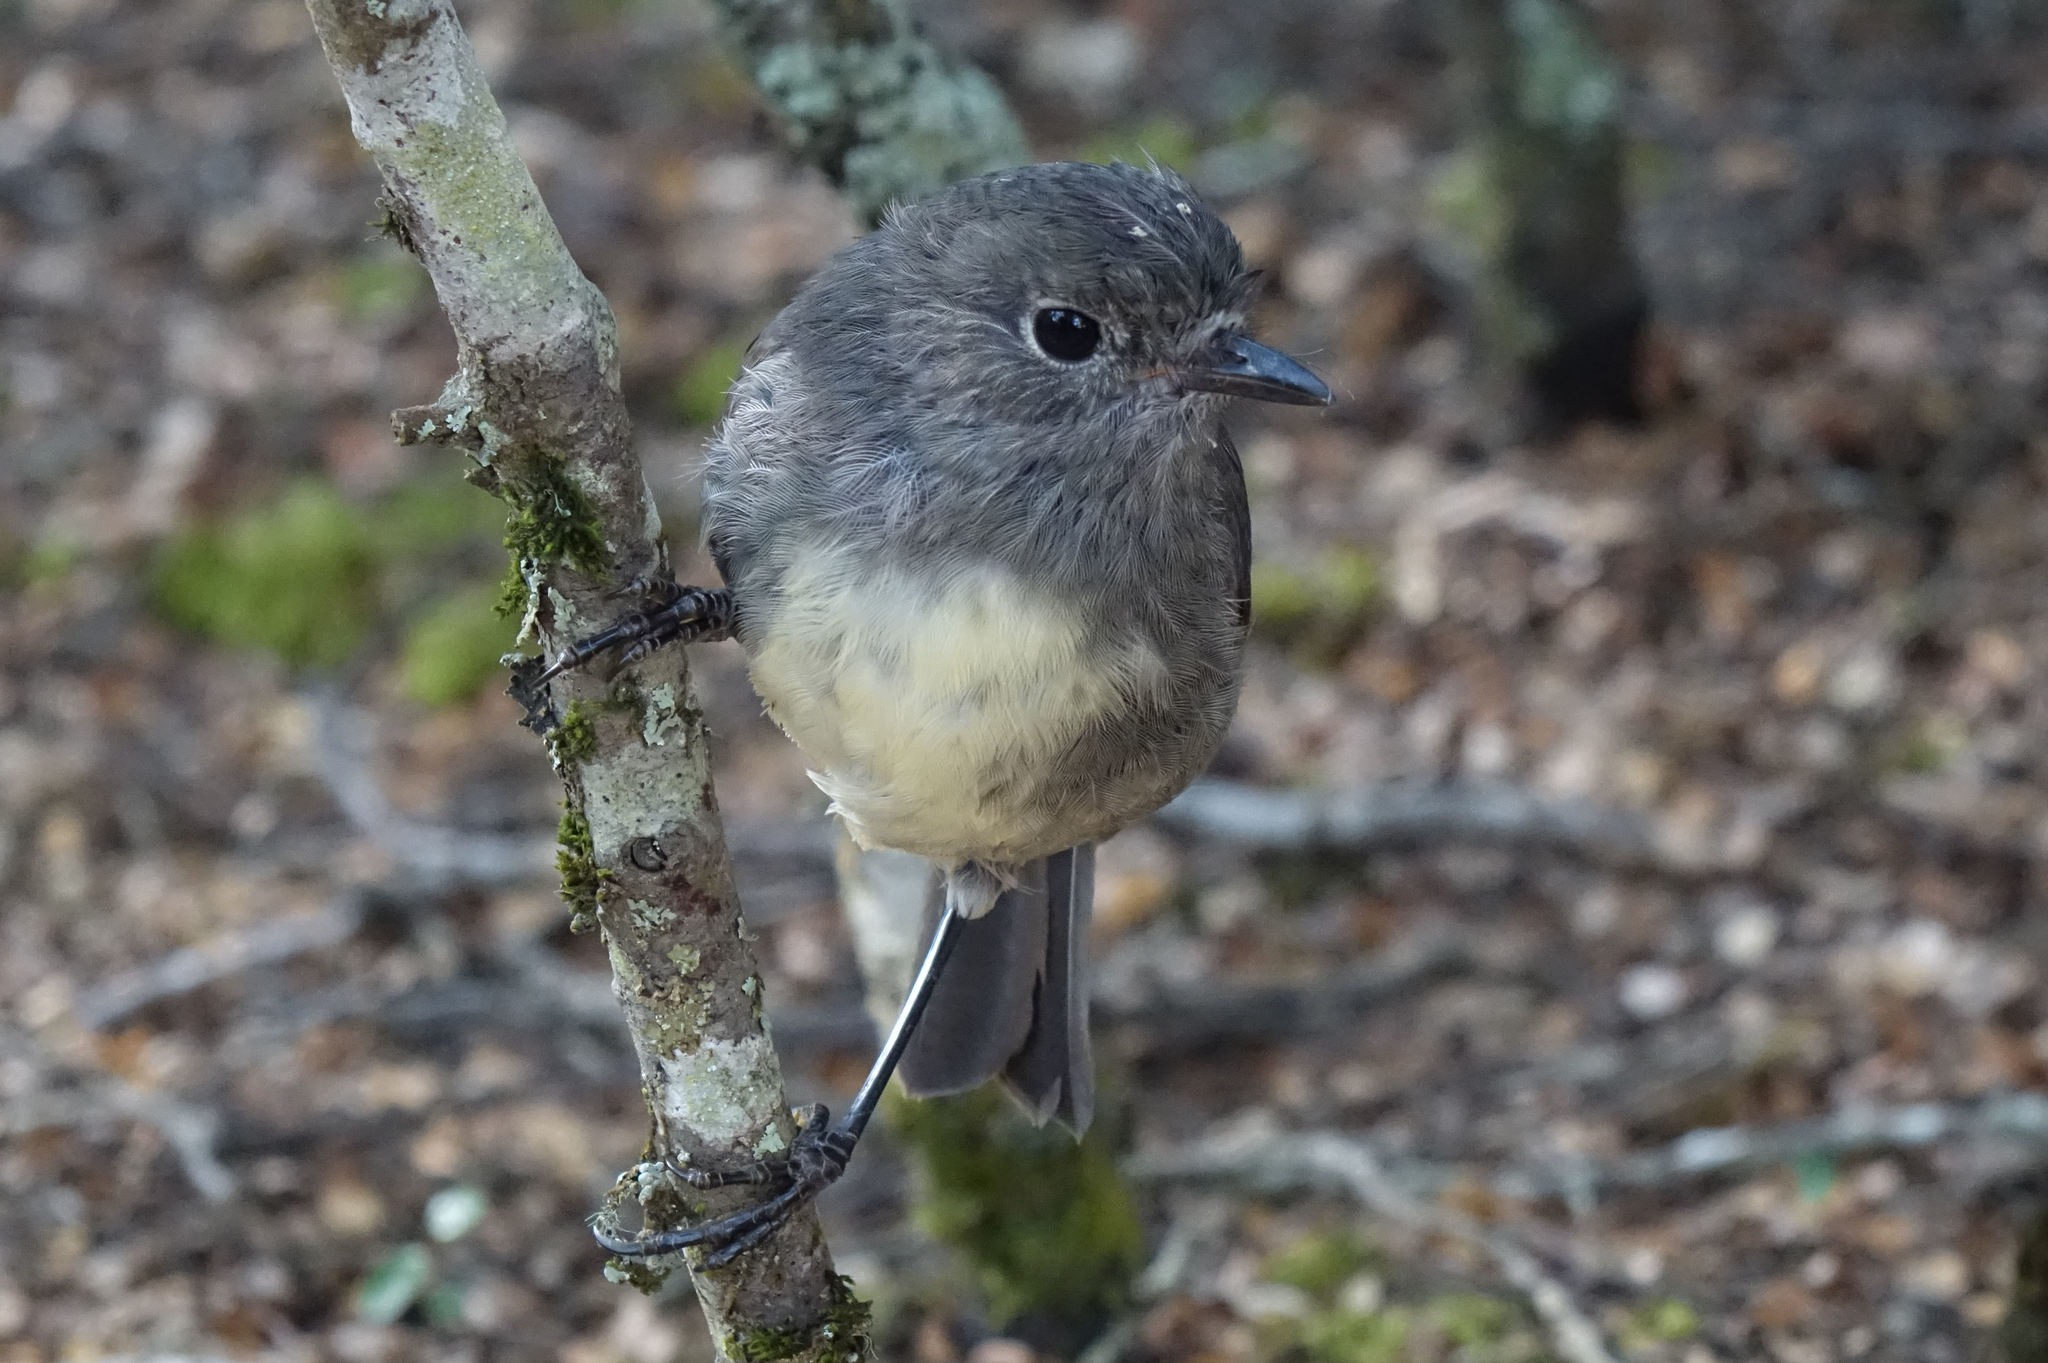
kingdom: Animalia
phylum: Chordata
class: Aves
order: Passeriformes
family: Petroicidae
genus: Petroica
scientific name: Petroica australis
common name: New zealand robin
